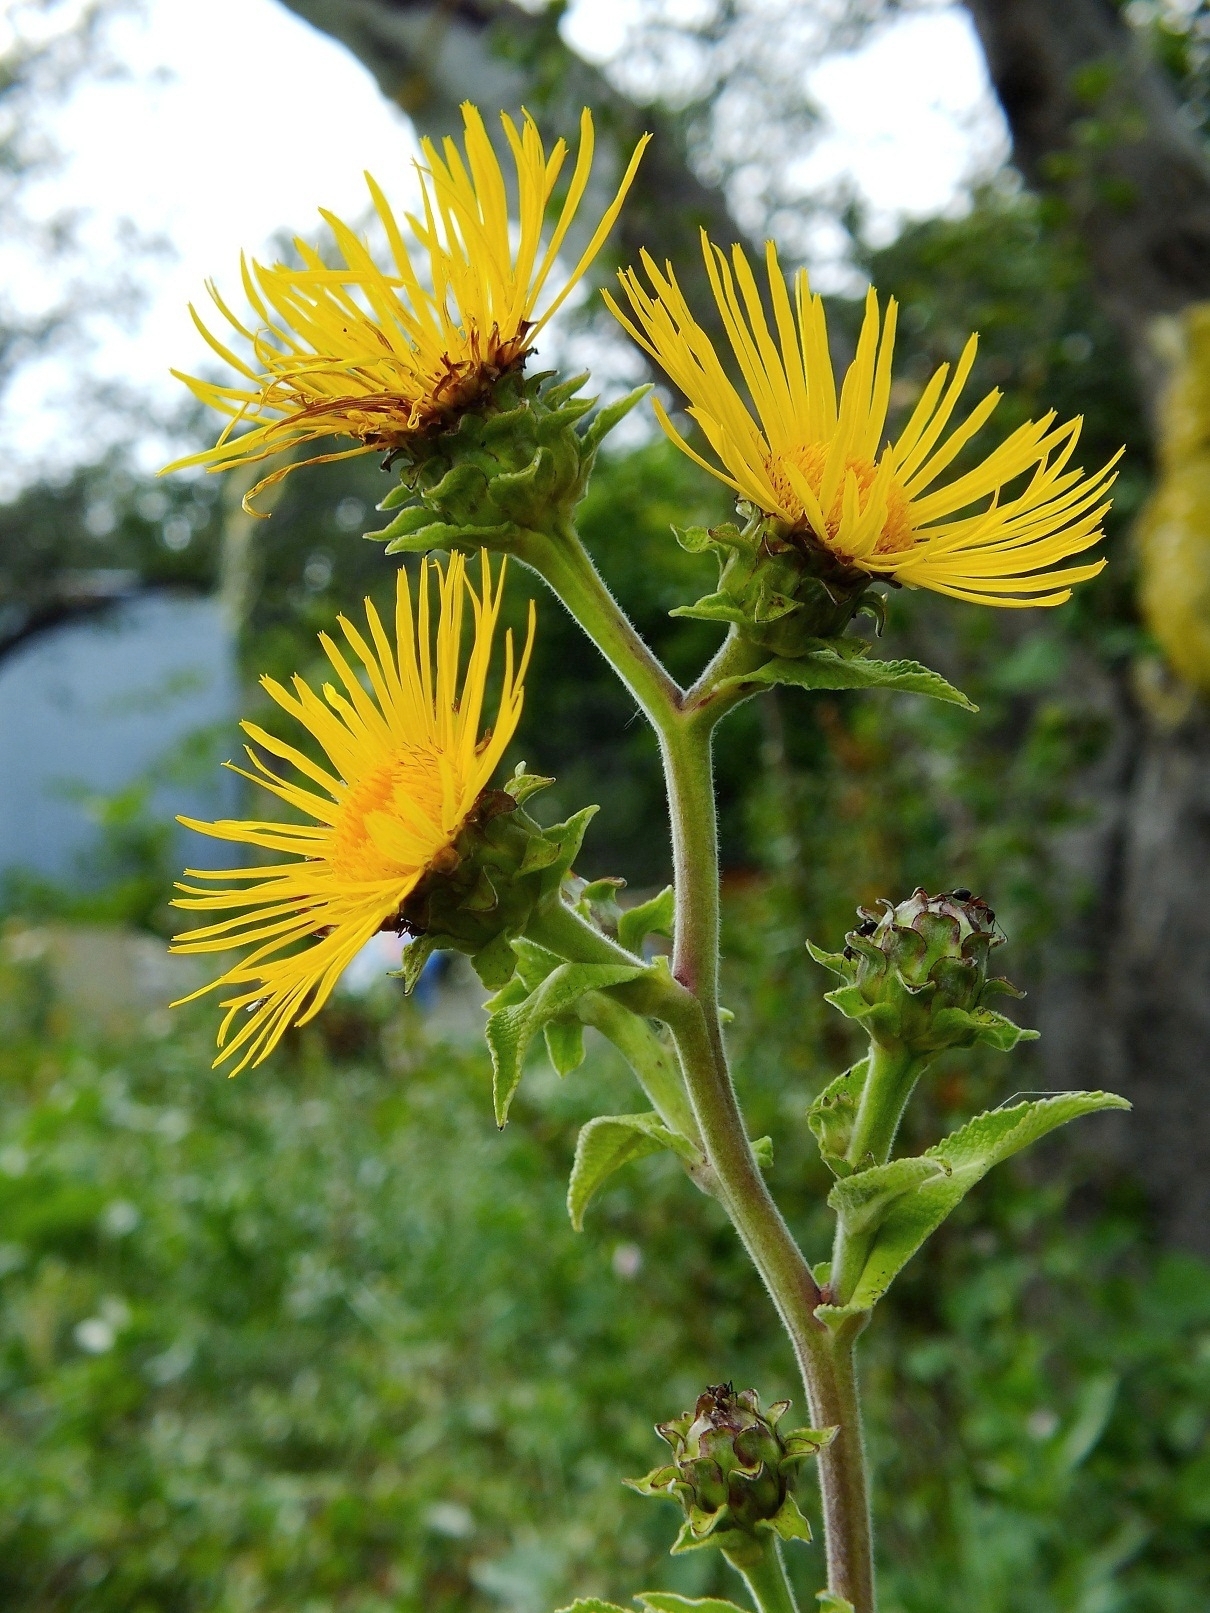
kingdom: Plantae
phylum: Tracheophyta
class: Magnoliopsida
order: Asterales
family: Asteraceae
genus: Inula
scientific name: Inula helenium
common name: Elecampane
